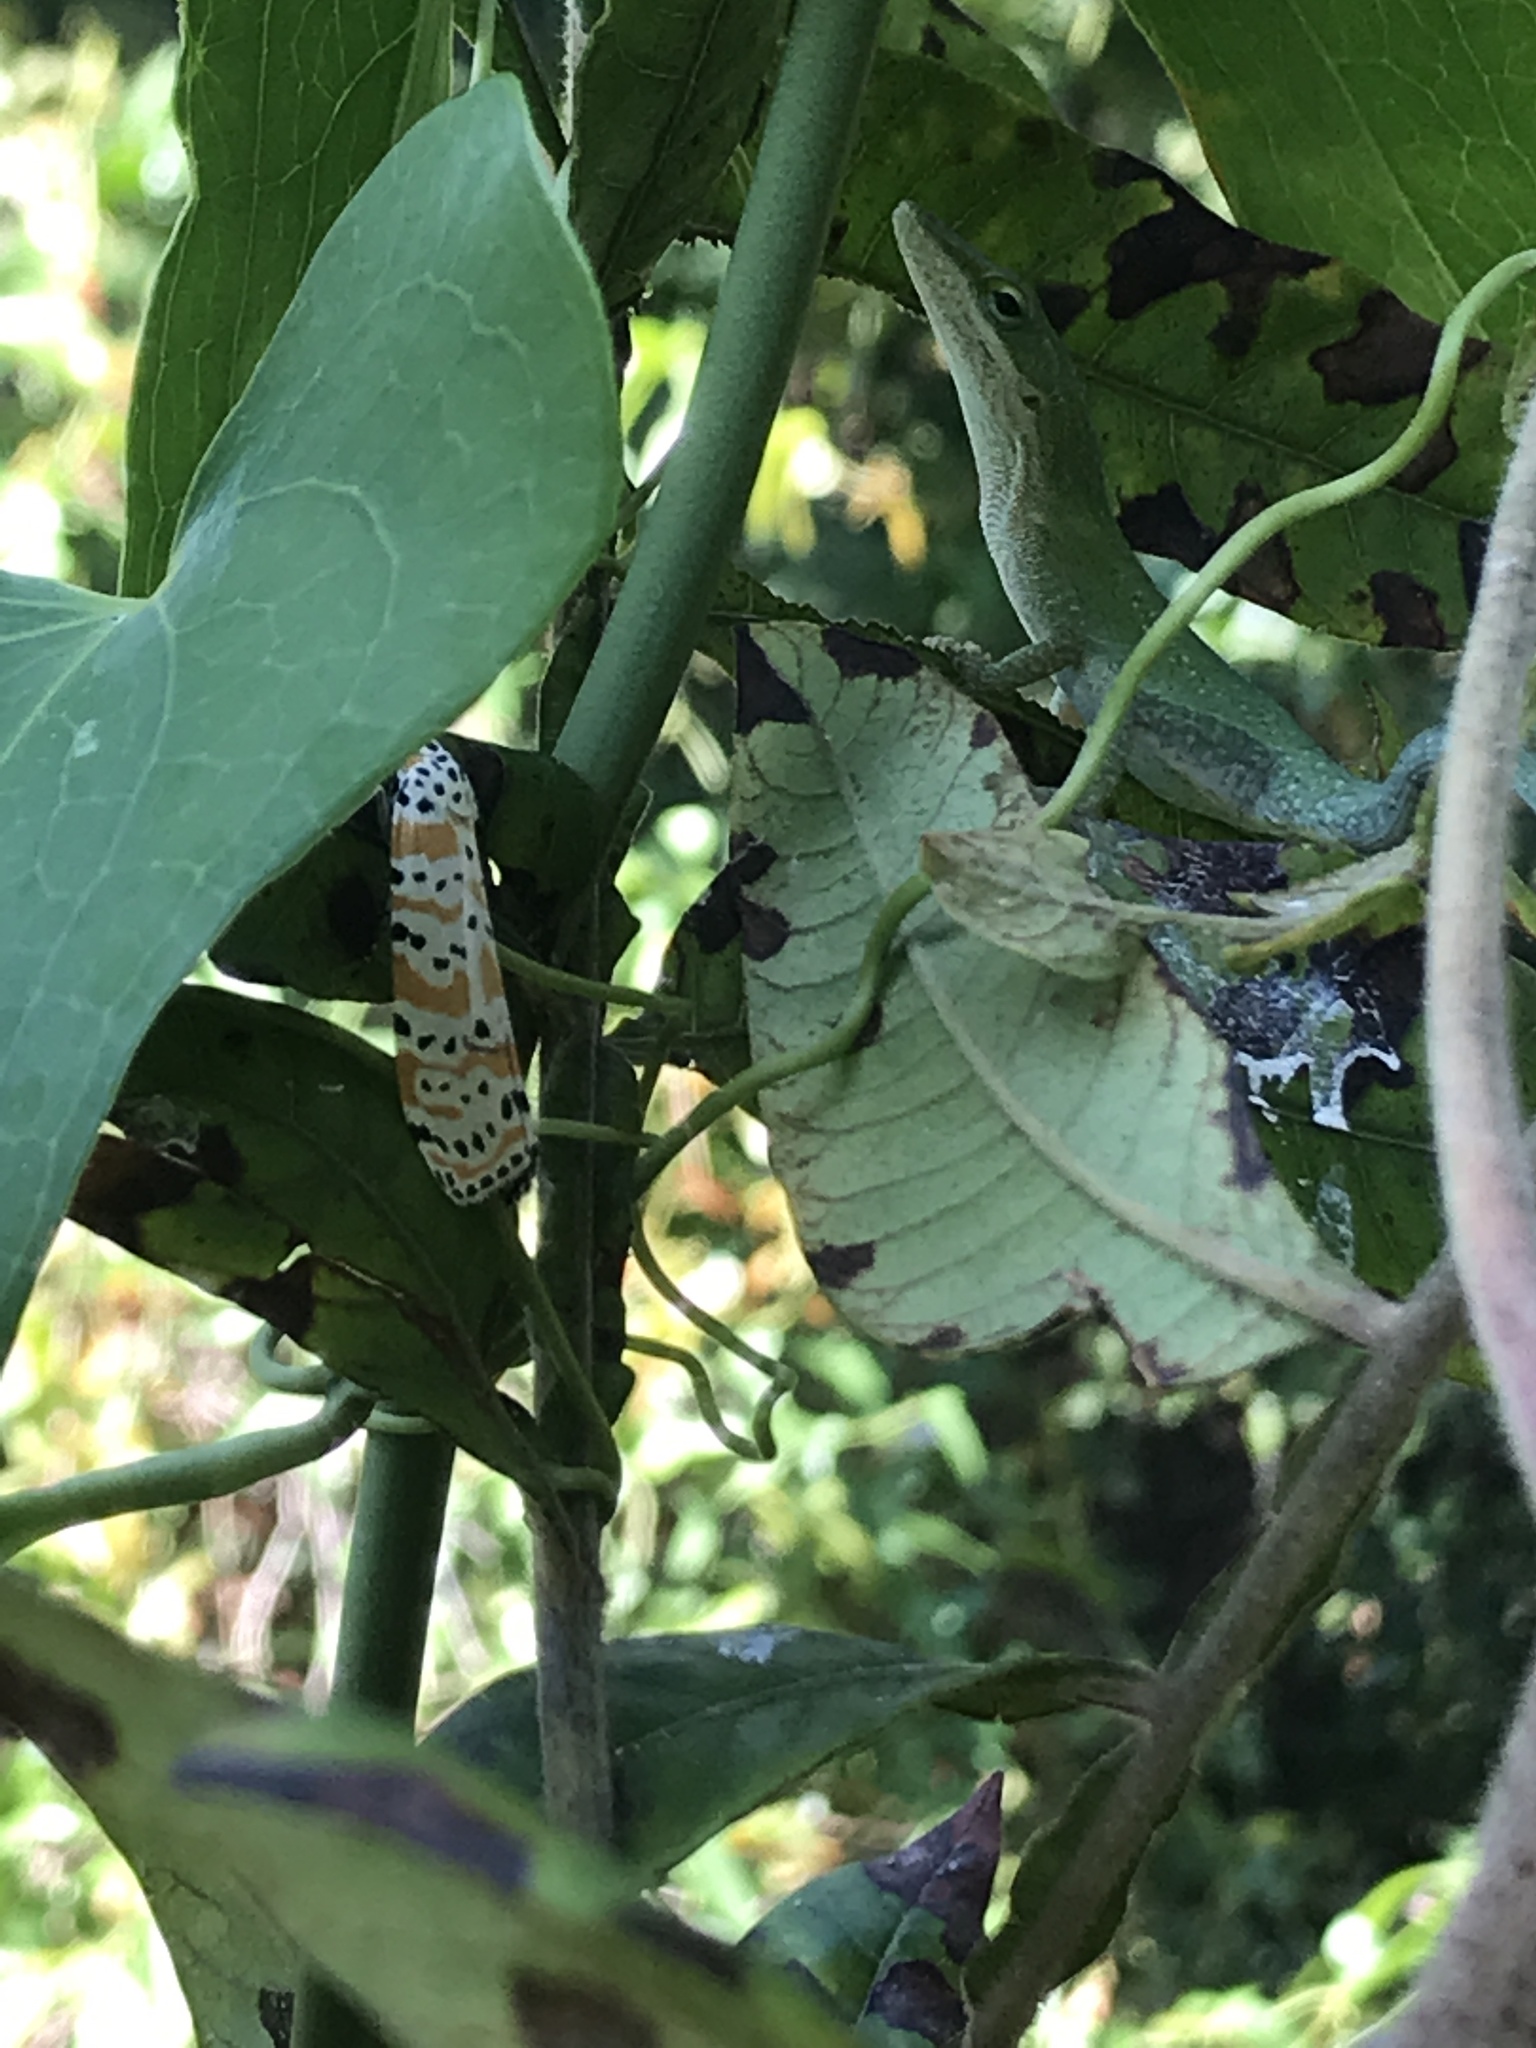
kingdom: Animalia
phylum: Chordata
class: Squamata
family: Dactyloidae
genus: Anolis
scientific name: Anolis carolinensis
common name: Green anole
